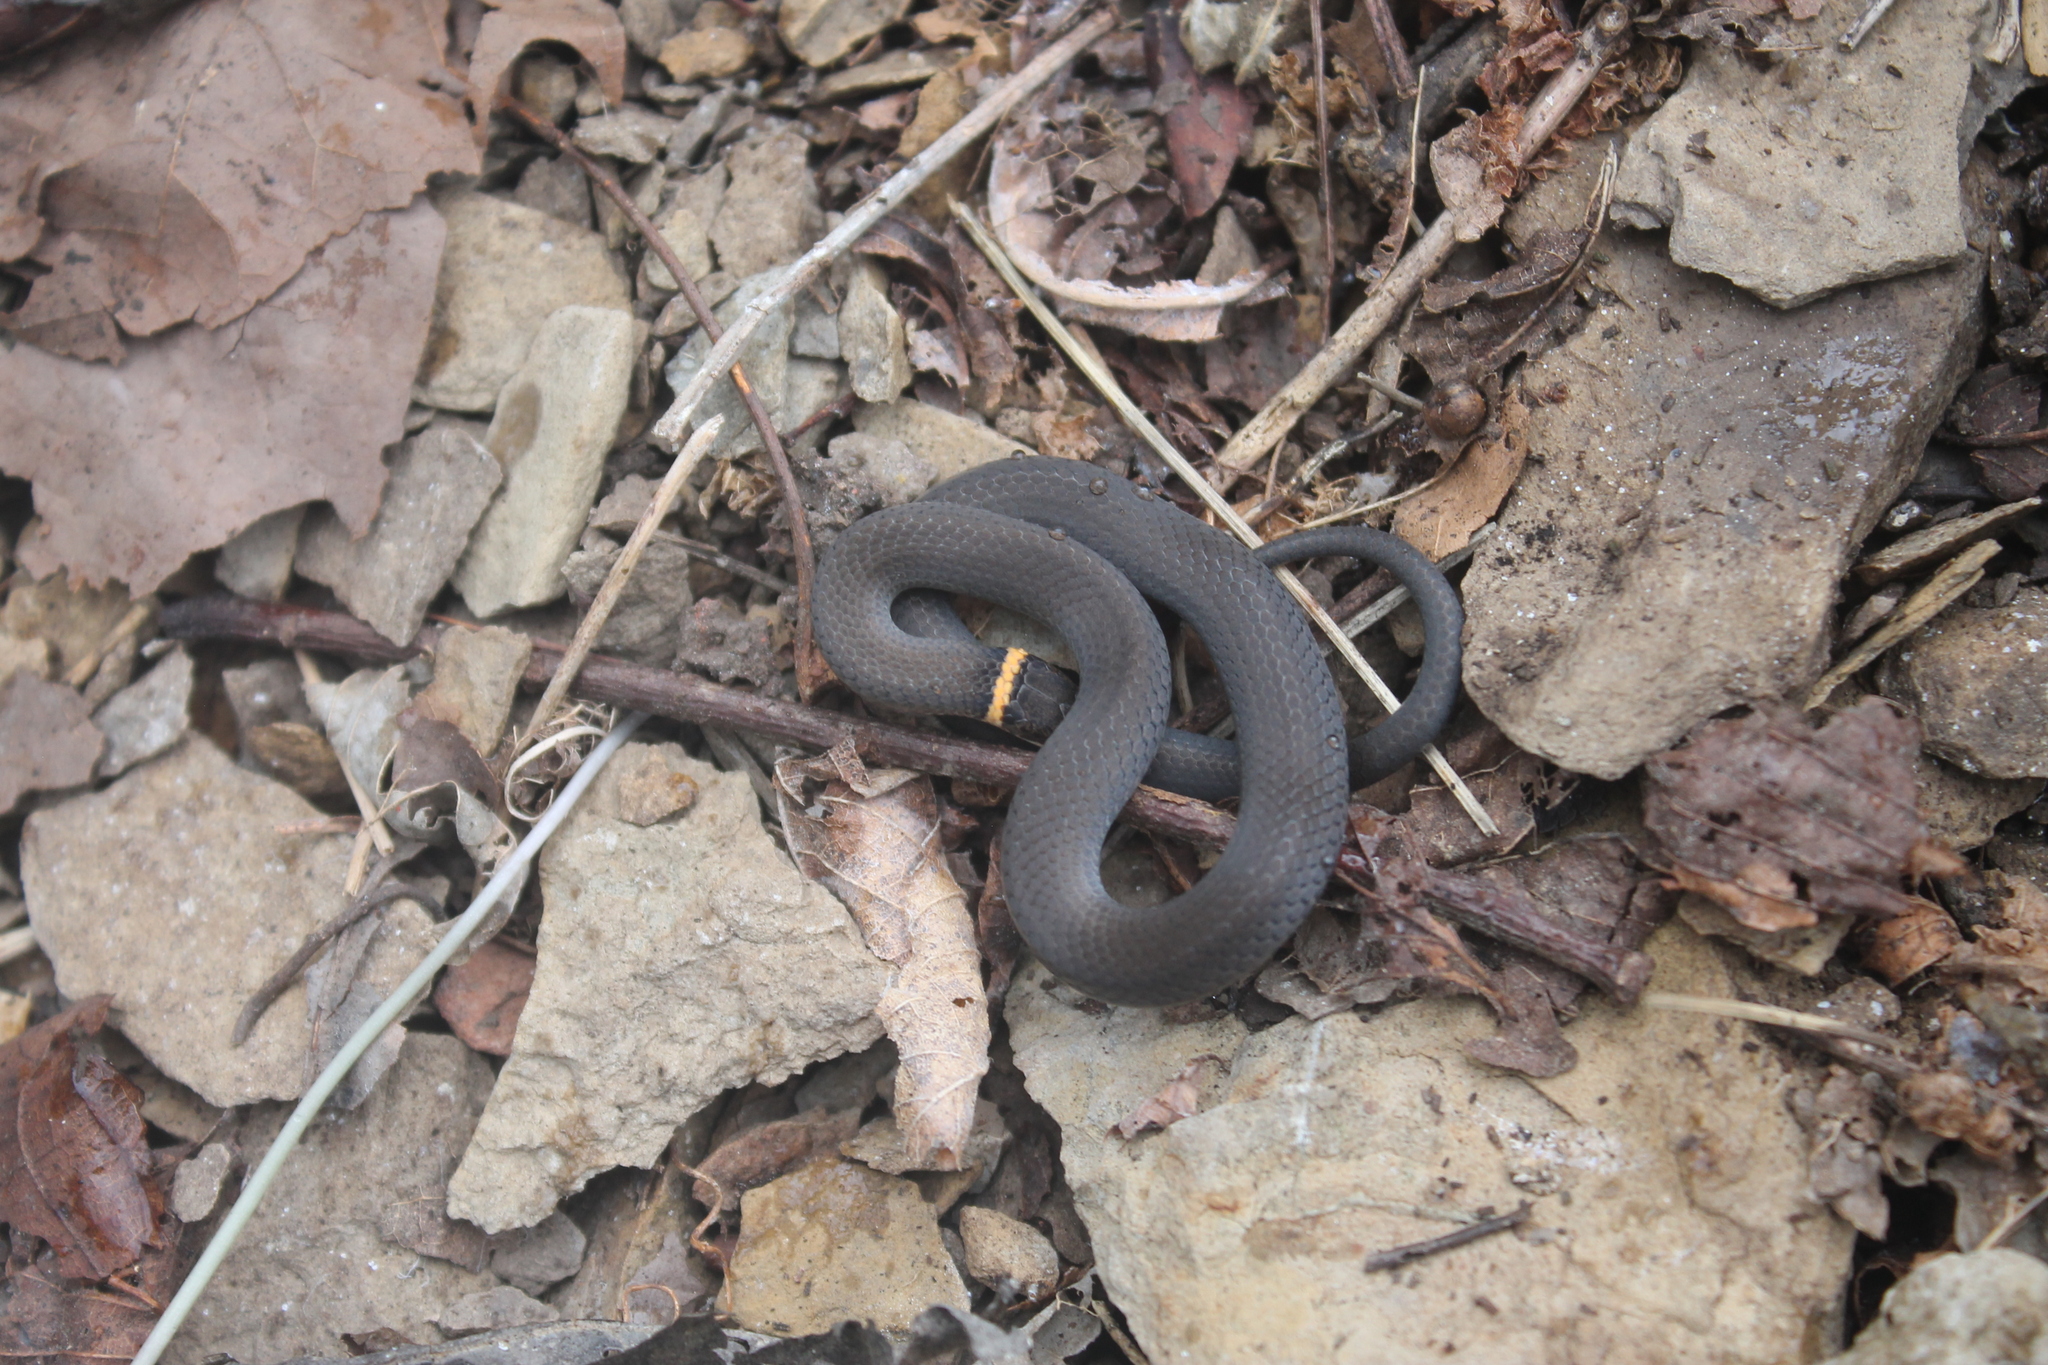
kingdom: Animalia
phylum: Chordata
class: Squamata
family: Colubridae
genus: Diadophis
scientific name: Diadophis punctatus
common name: Ringneck snake
